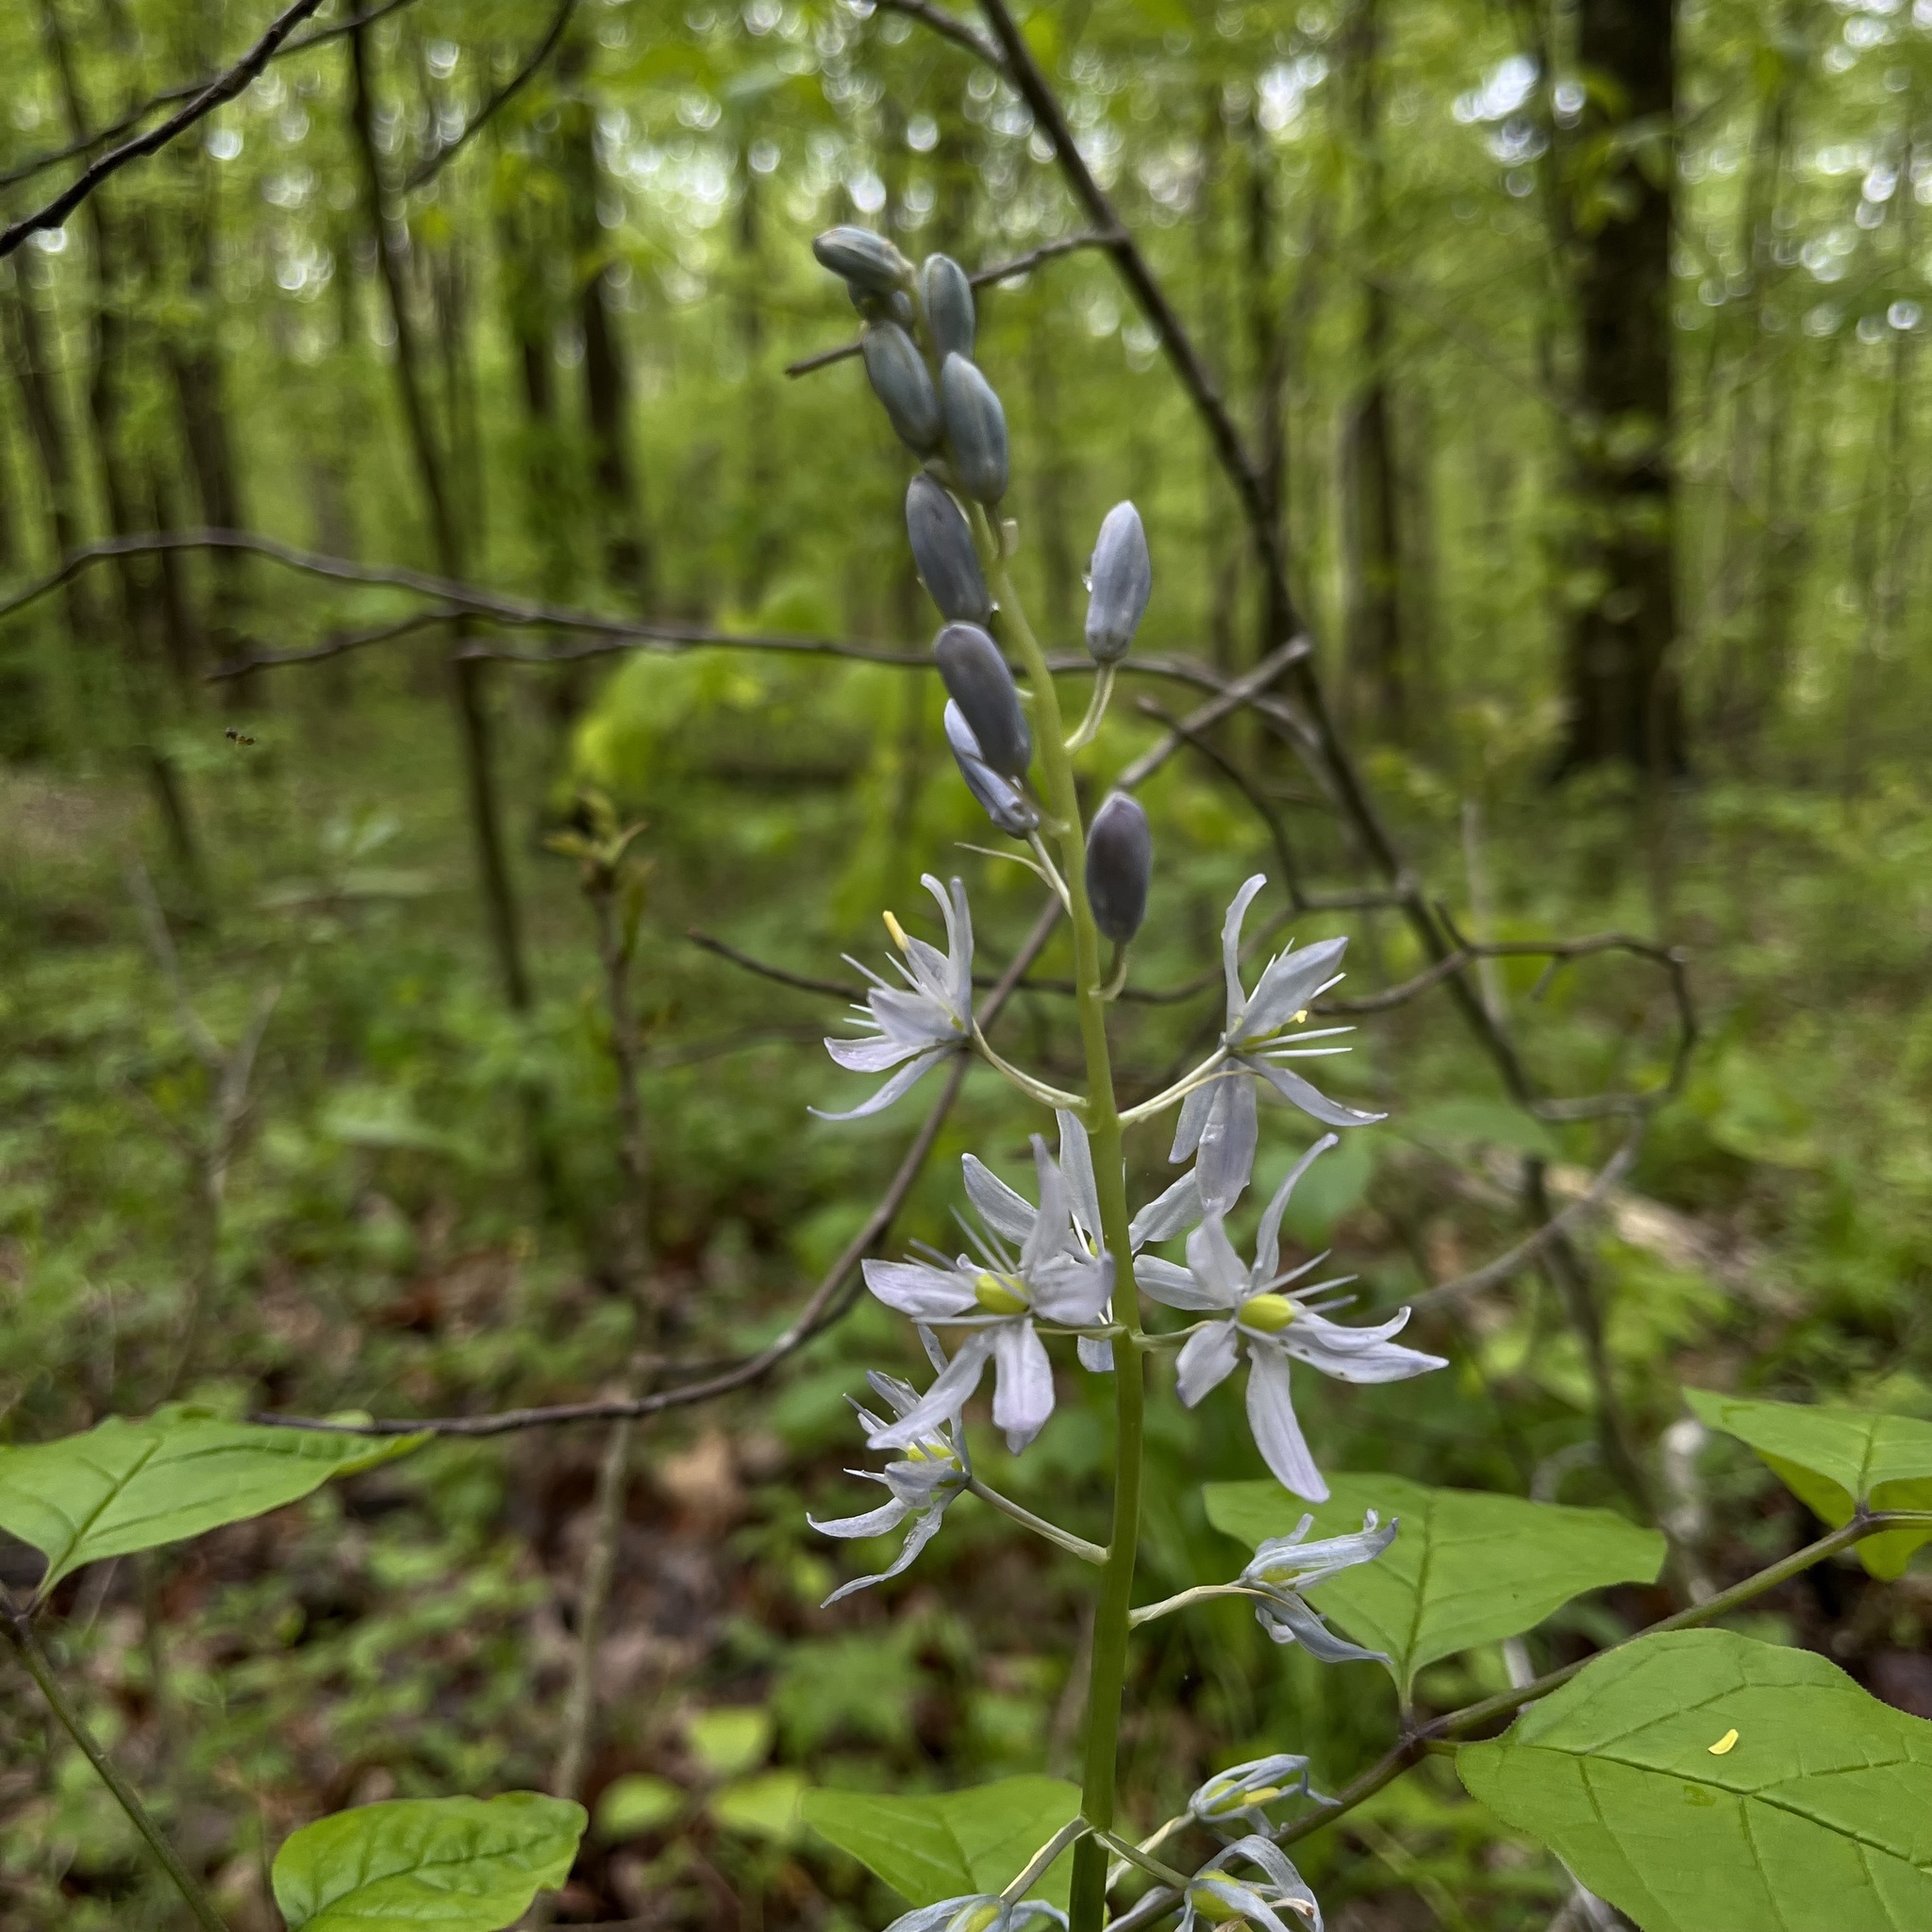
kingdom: Plantae
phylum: Tracheophyta
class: Liliopsida
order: Asparagales
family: Asparagaceae
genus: Camassia
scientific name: Camassia scilloides
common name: Wild hyacinth
